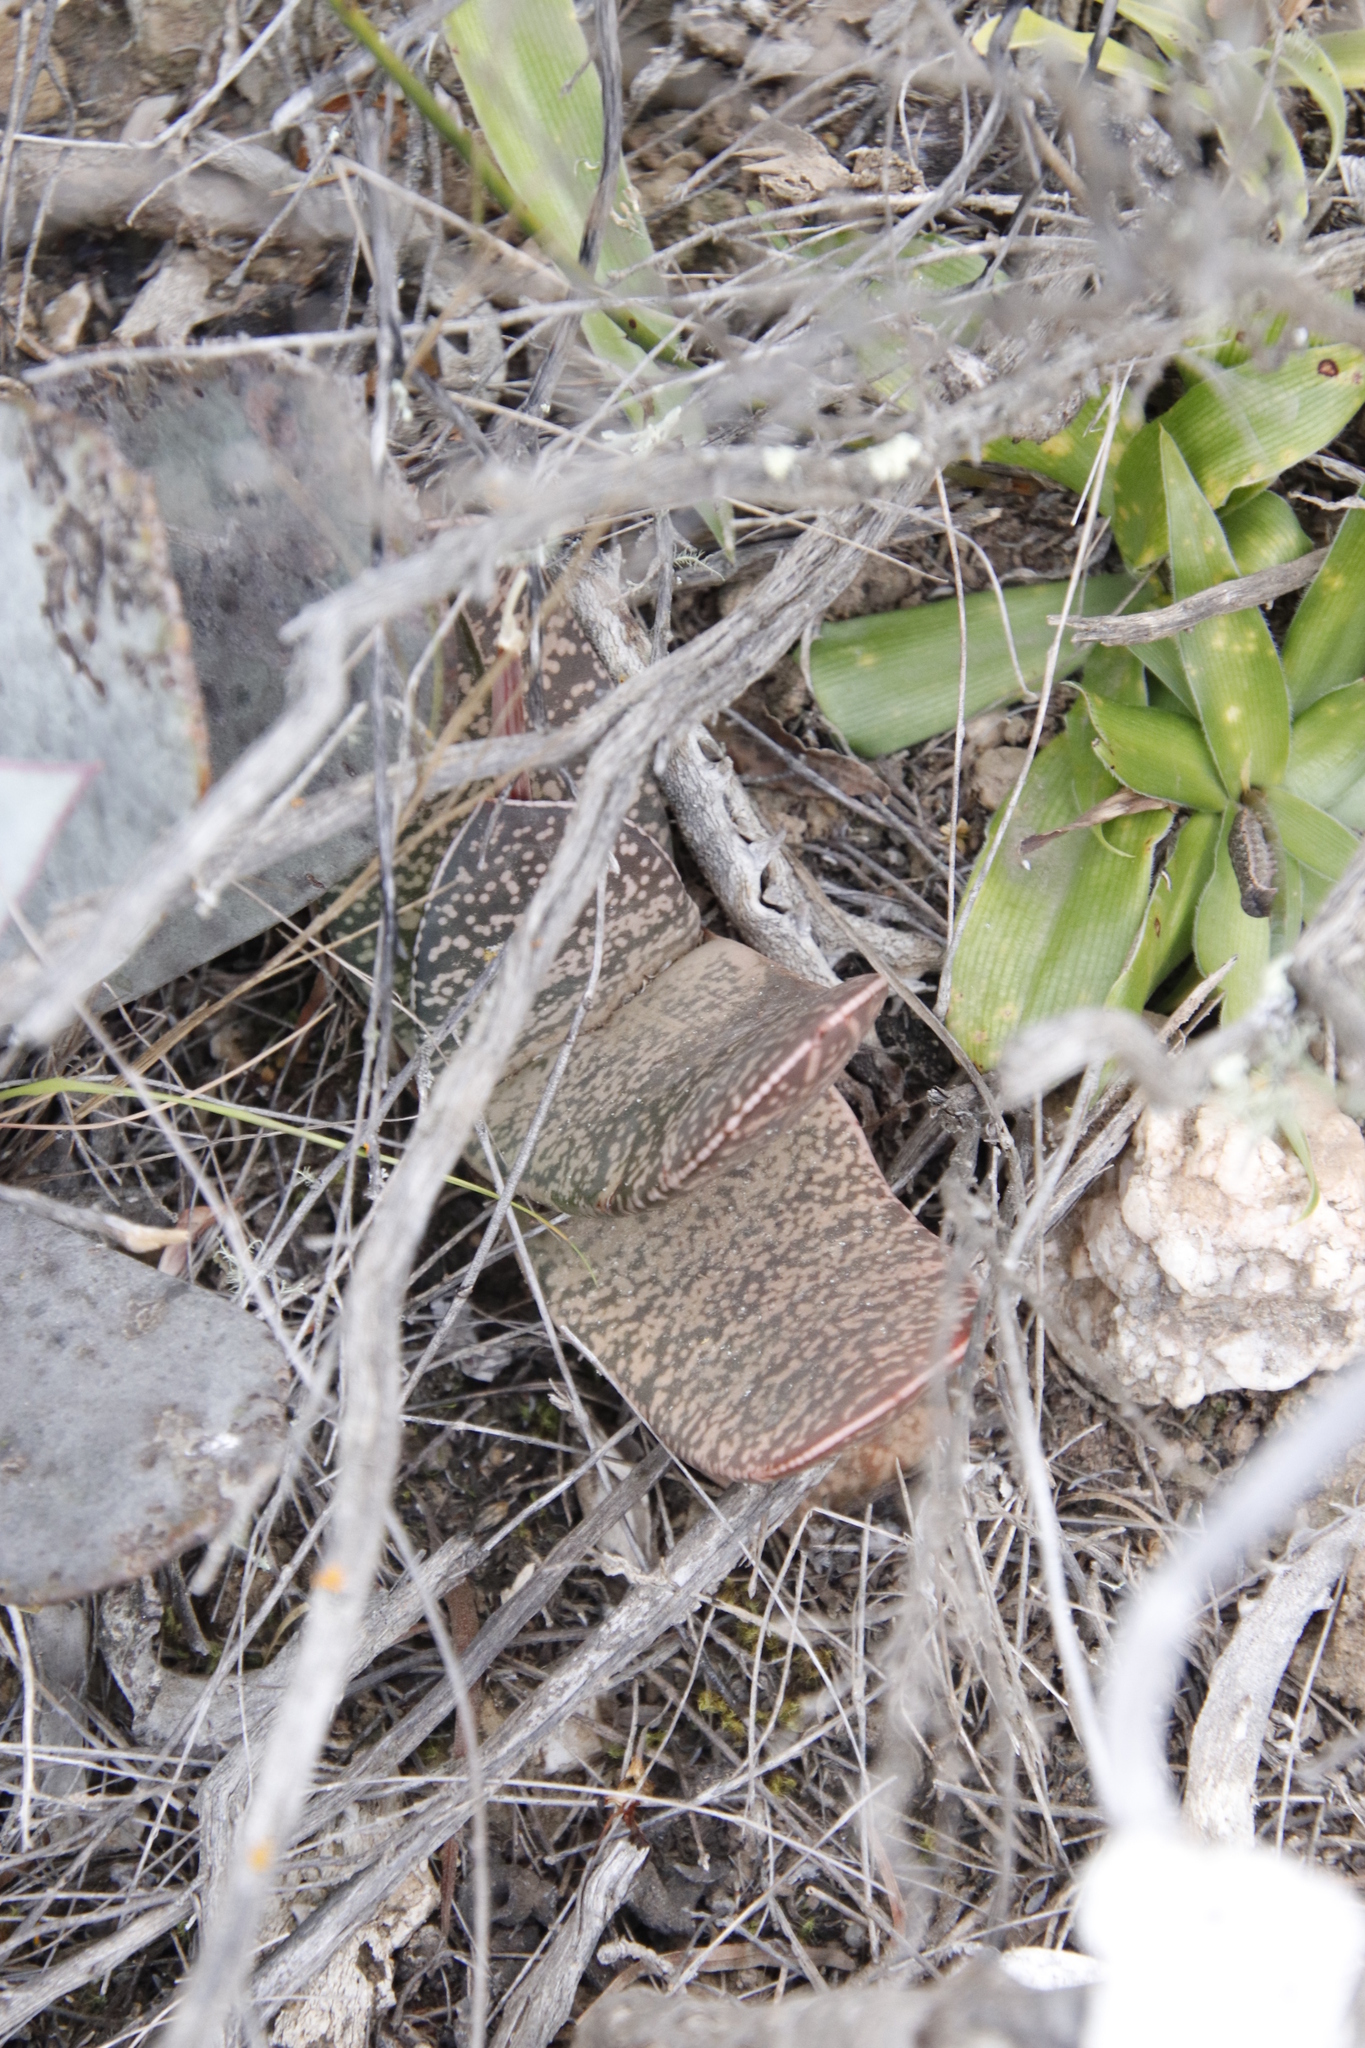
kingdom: Plantae
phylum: Tracheophyta
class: Liliopsida
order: Asparagales
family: Asphodelaceae
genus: Gasteria
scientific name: Gasteria brachyphylla
